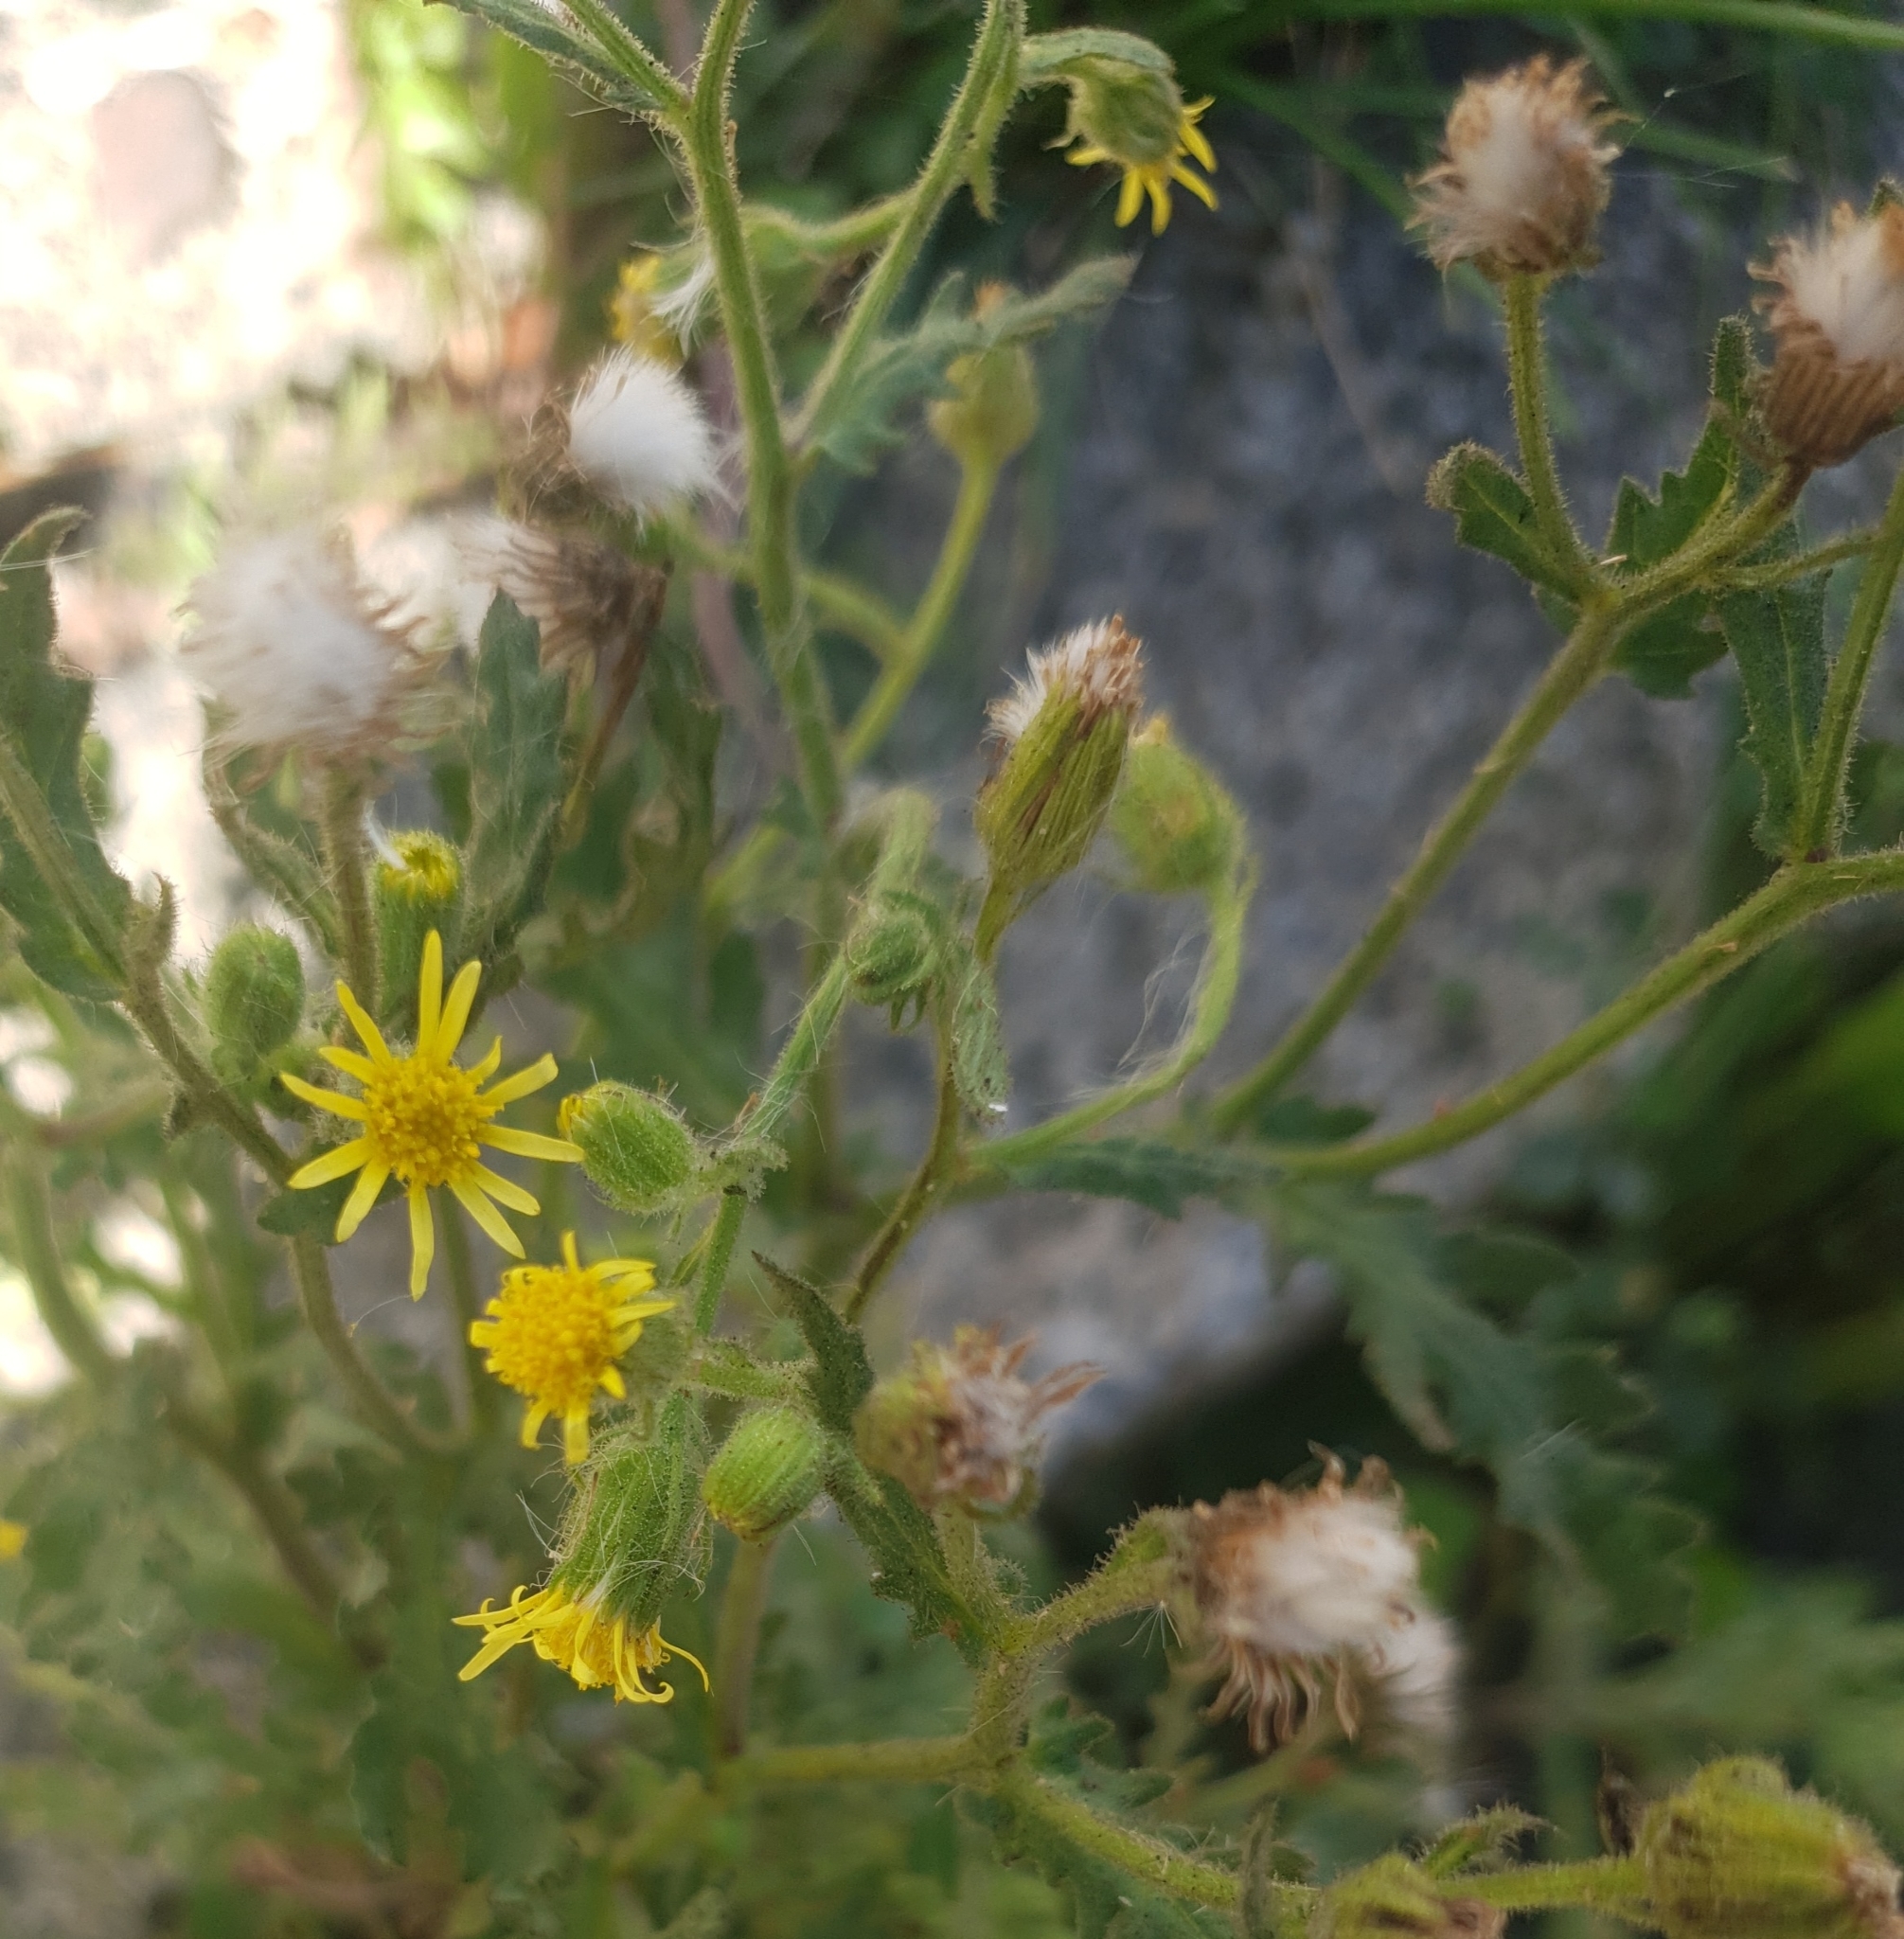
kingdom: Plantae
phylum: Tracheophyta
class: Magnoliopsida
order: Asterales
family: Asteraceae
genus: Senecio
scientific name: Senecio viscosus
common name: Sticky groundsel
